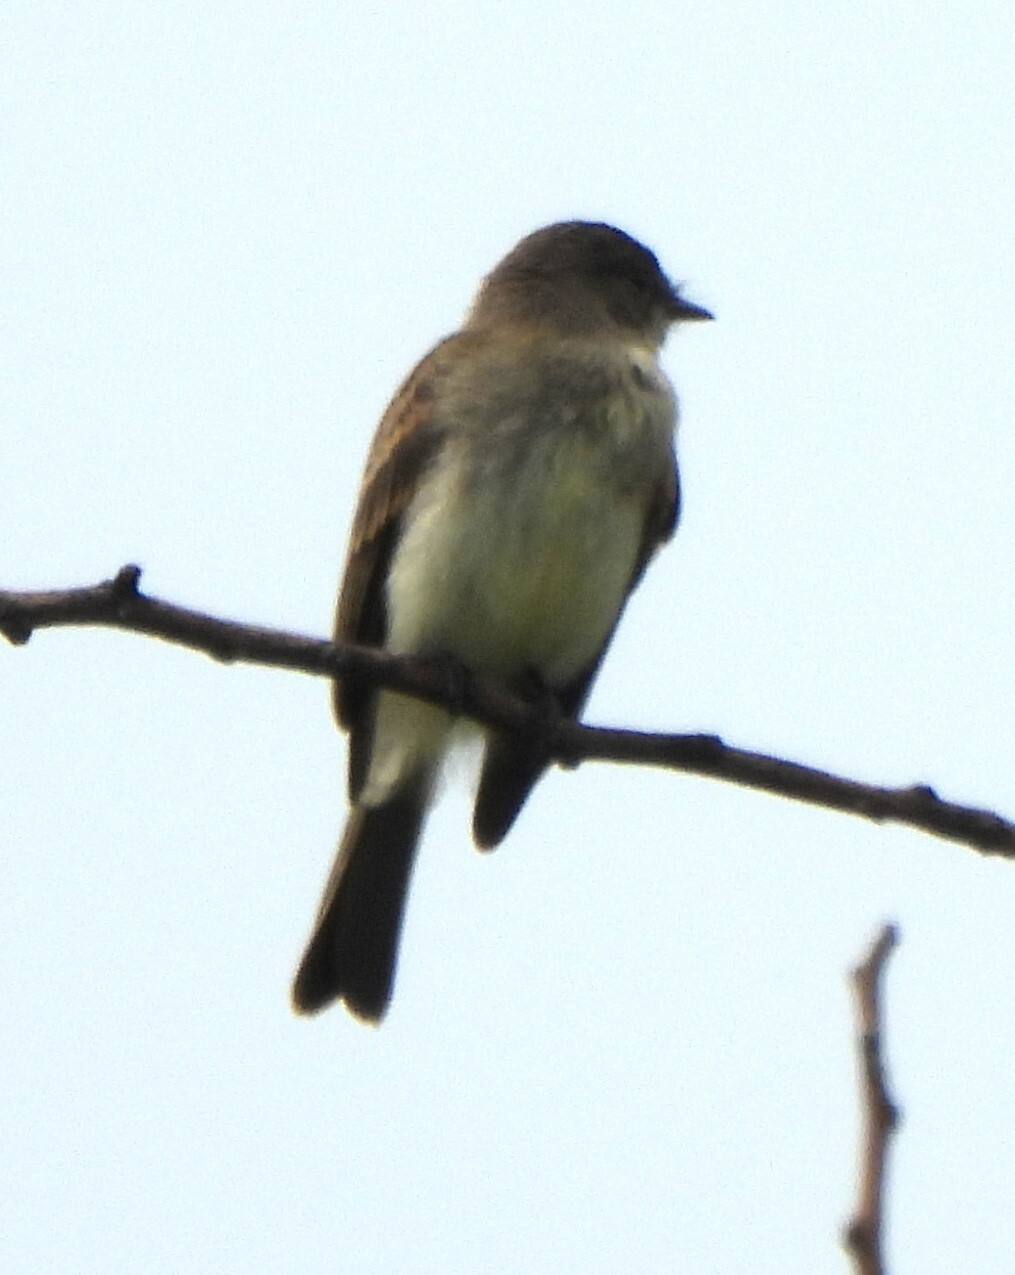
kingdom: Animalia
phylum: Chordata
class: Aves
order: Passeriformes
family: Tyrannidae
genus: Sayornis
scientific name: Sayornis phoebe
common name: Eastern phoebe
